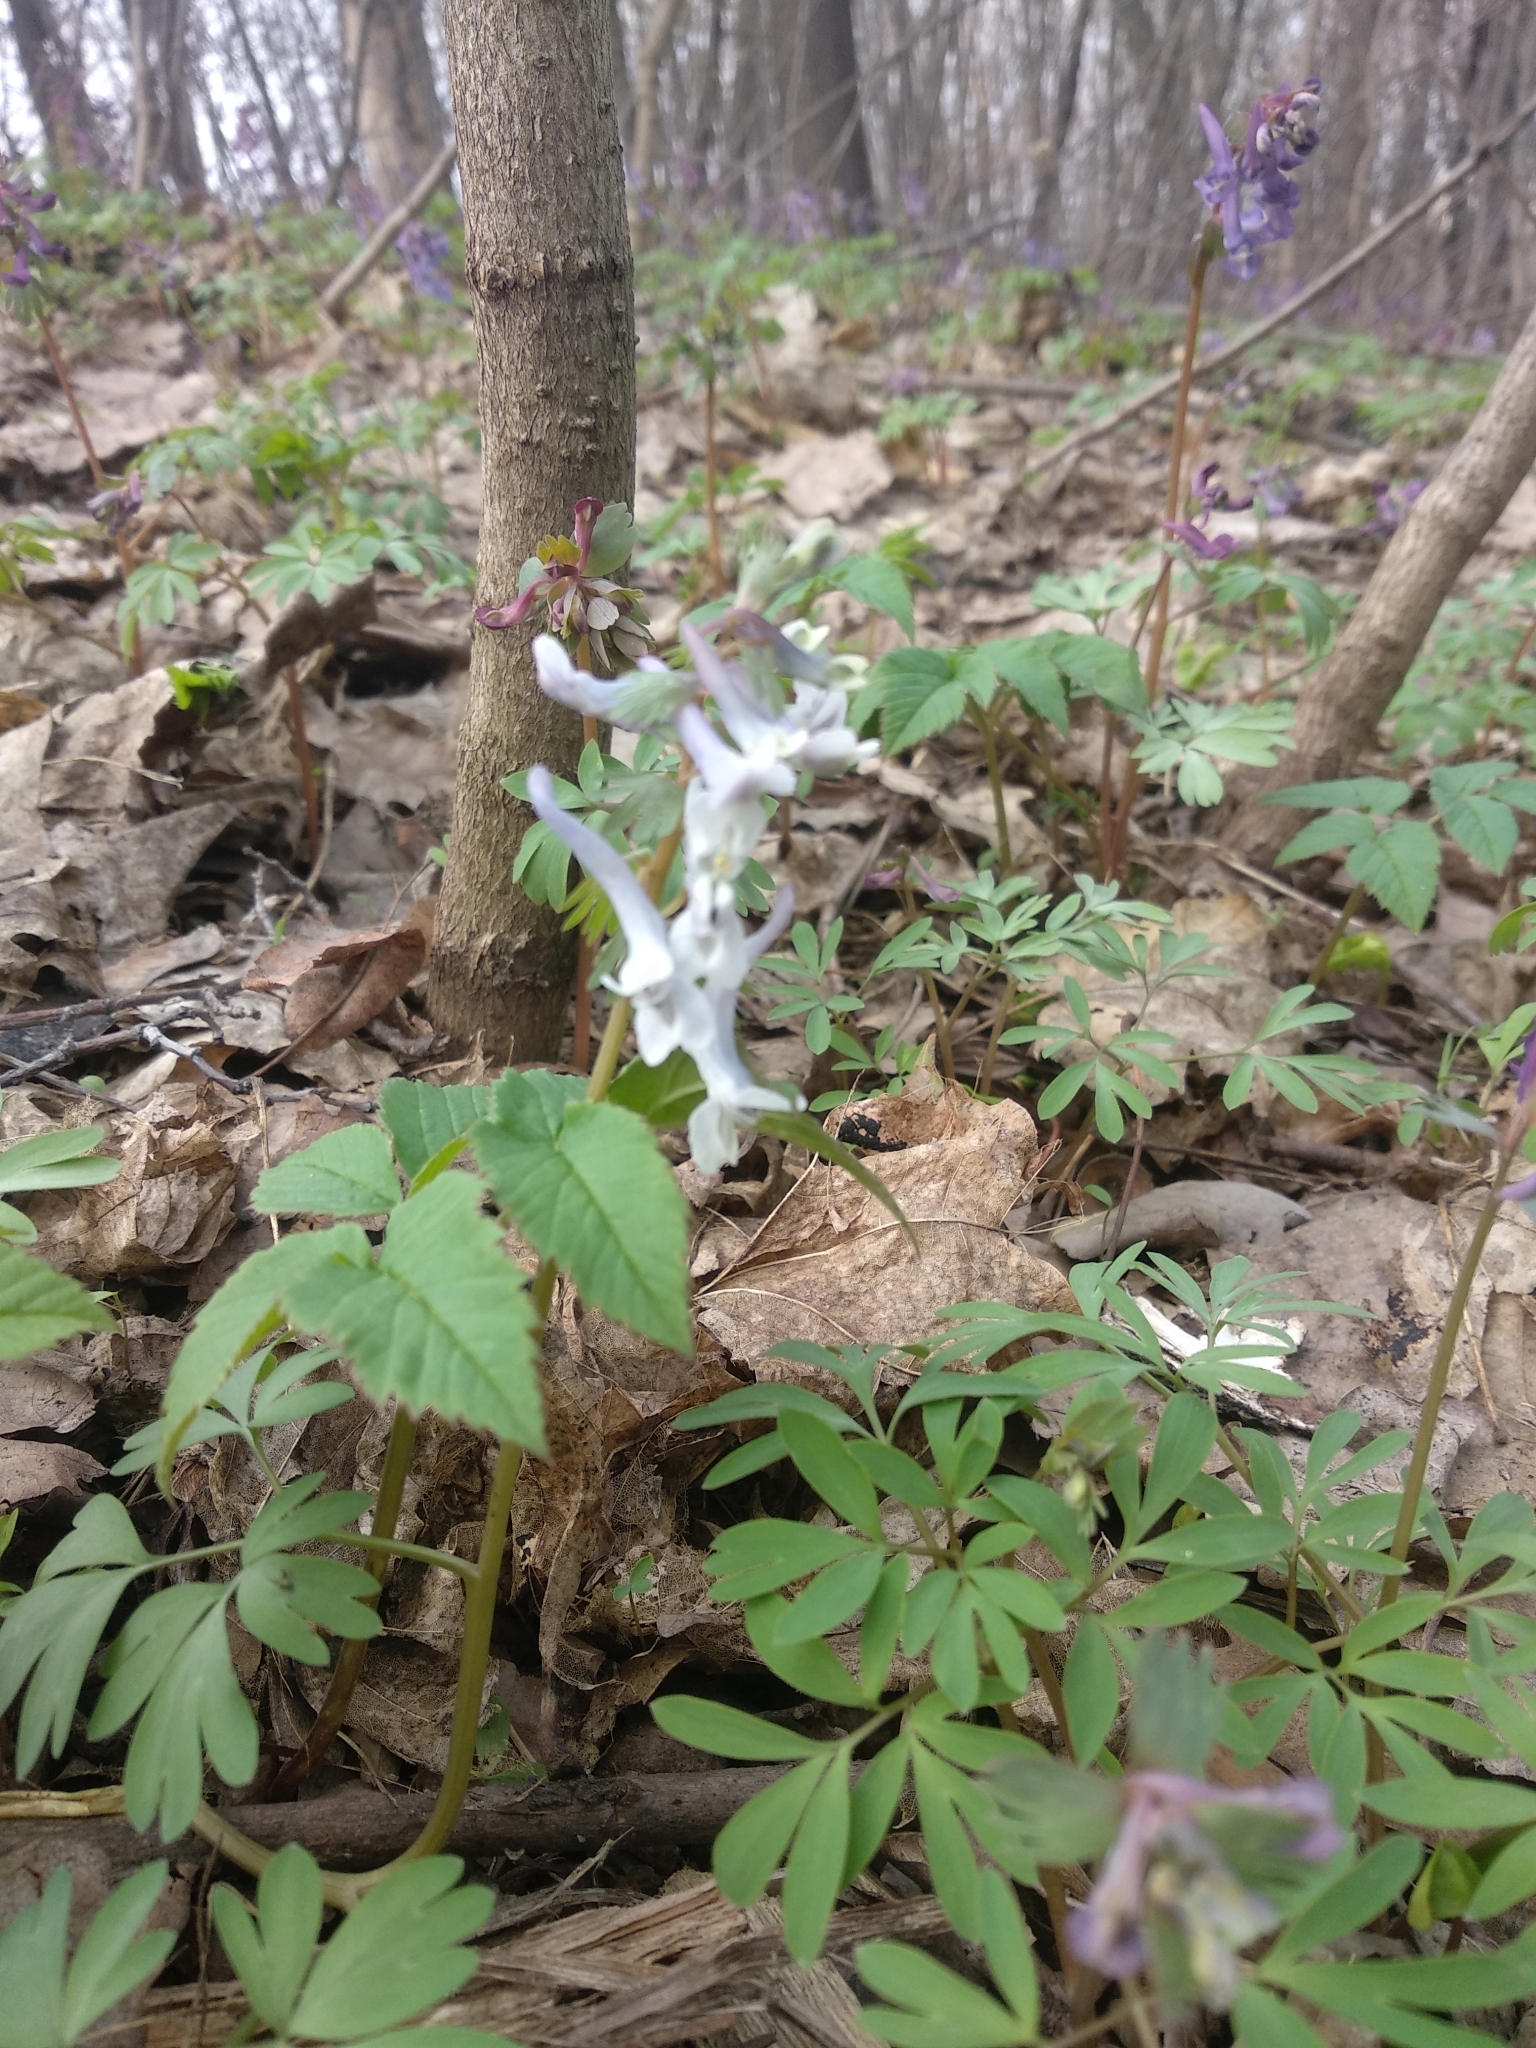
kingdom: Plantae
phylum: Tracheophyta
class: Magnoliopsida
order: Ranunculales
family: Papaveraceae
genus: Corydalis
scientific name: Corydalis solida
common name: Bird-in-a-bush
